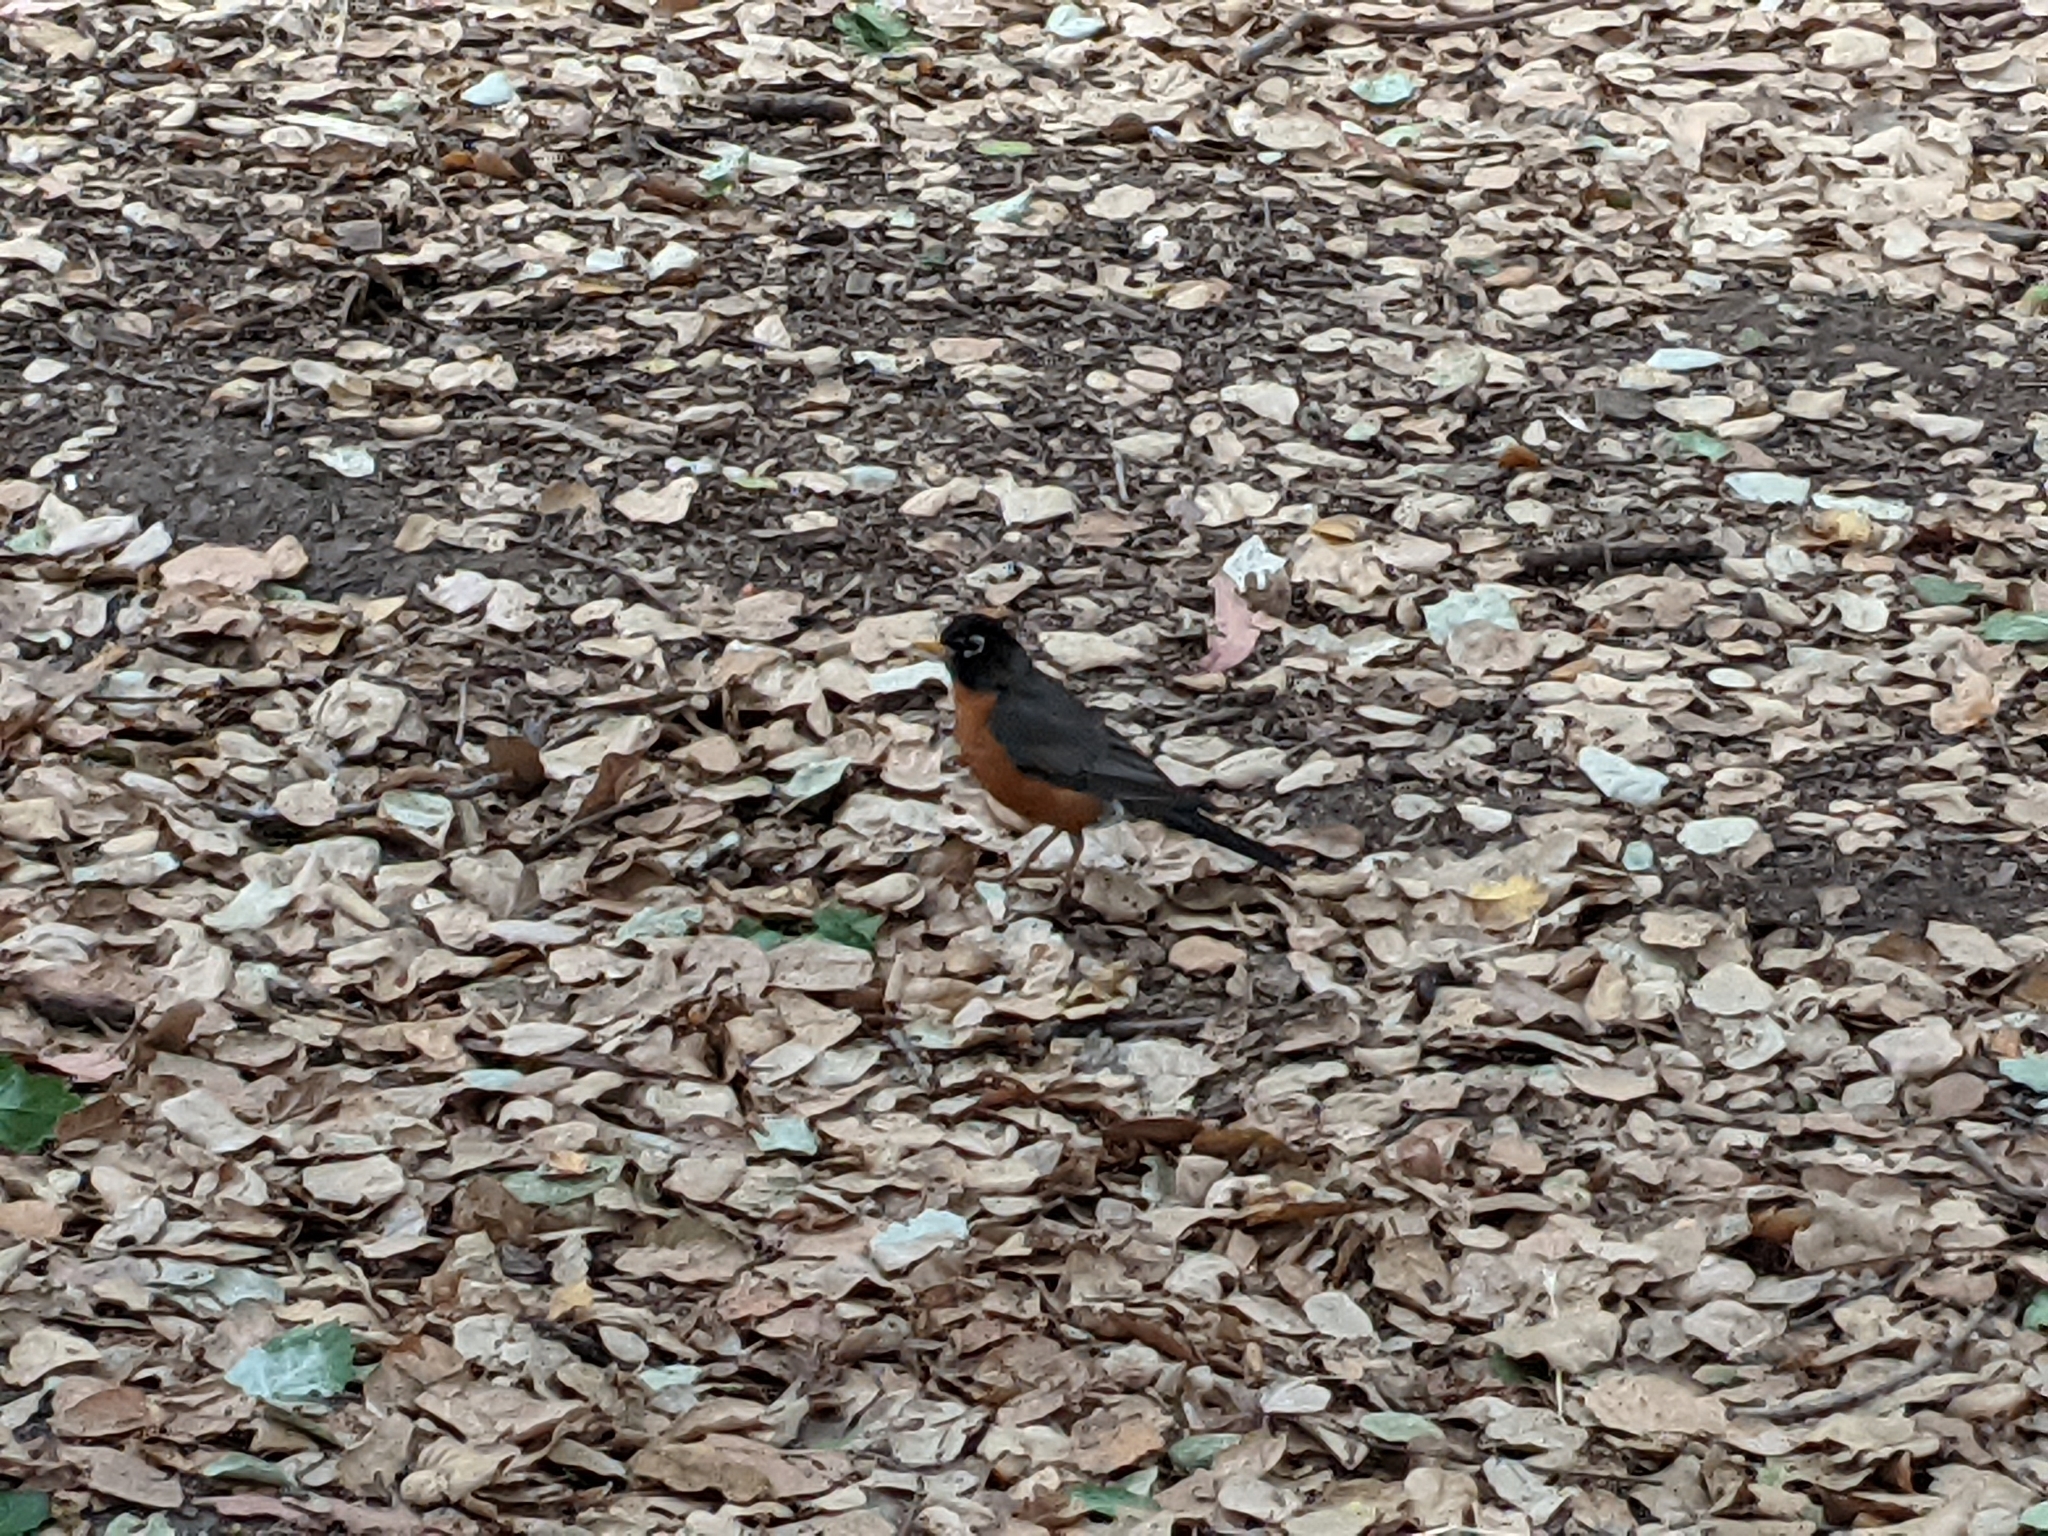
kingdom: Animalia
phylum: Chordata
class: Aves
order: Passeriformes
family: Turdidae
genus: Turdus
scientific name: Turdus migratorius
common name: American robin
